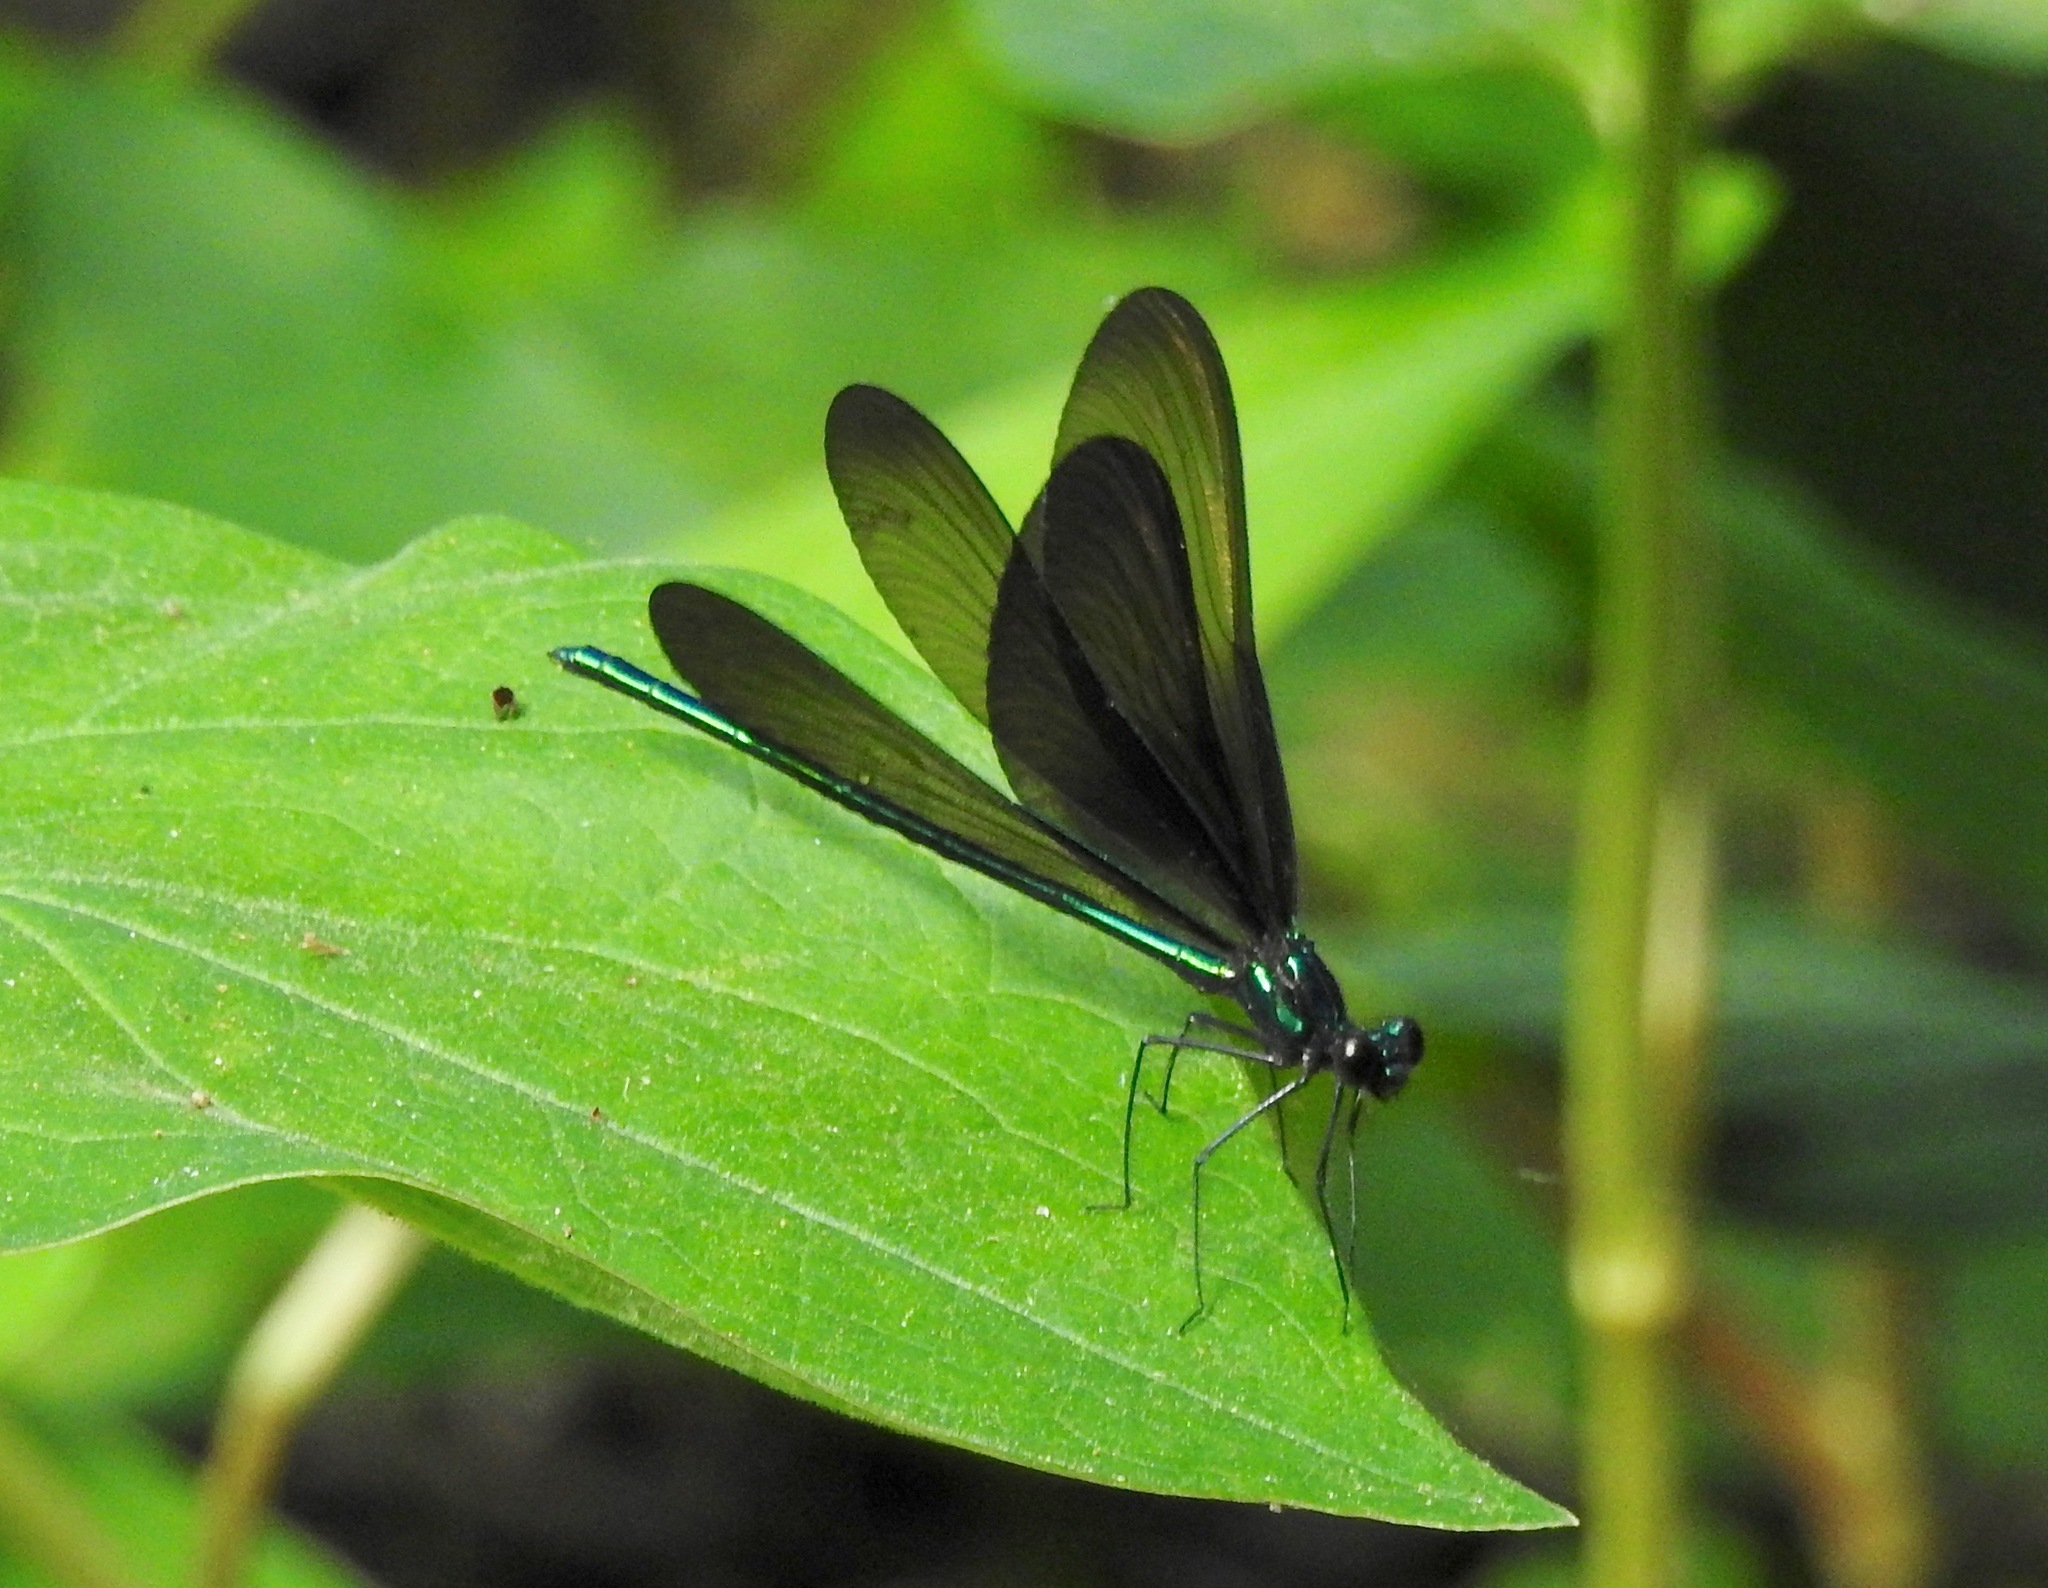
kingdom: Animalia
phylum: Arthropoda
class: Insecta
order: Odonata
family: Calopterygidae
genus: Calopteryx
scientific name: Calopteryx maculata
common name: Ebony jewelwing
